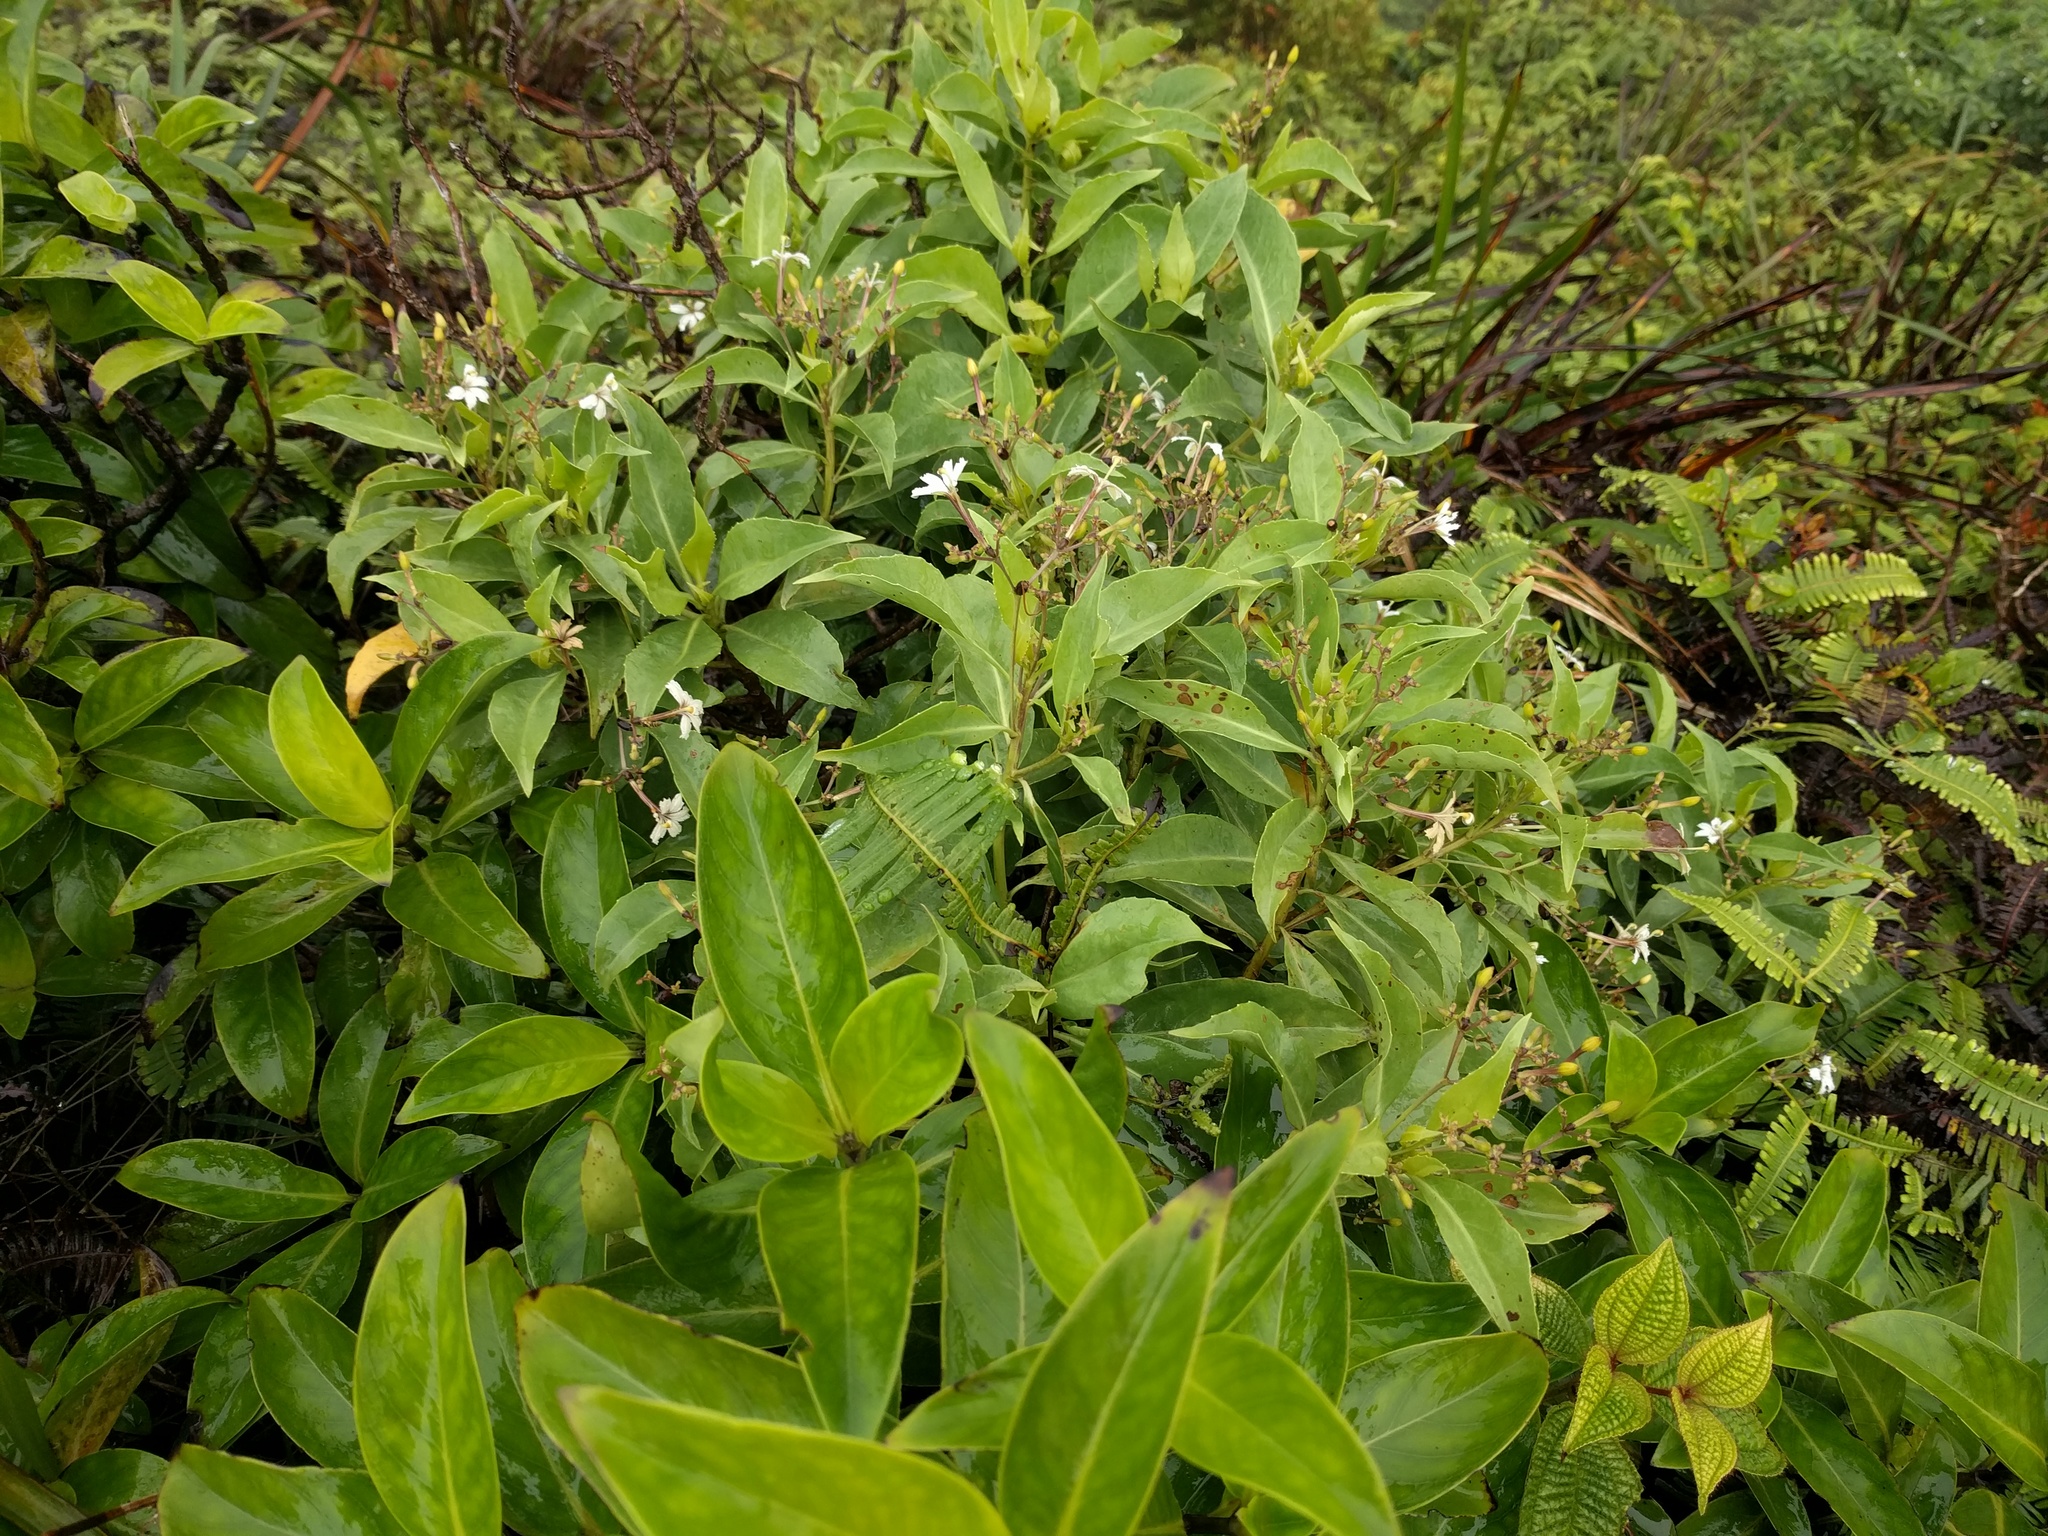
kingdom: Plantae
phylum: Tracheophyta
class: Magnoliopsida
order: Asterales
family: Goodeniaceae
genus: Scaevola
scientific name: Scaevola gaudichaudiana
